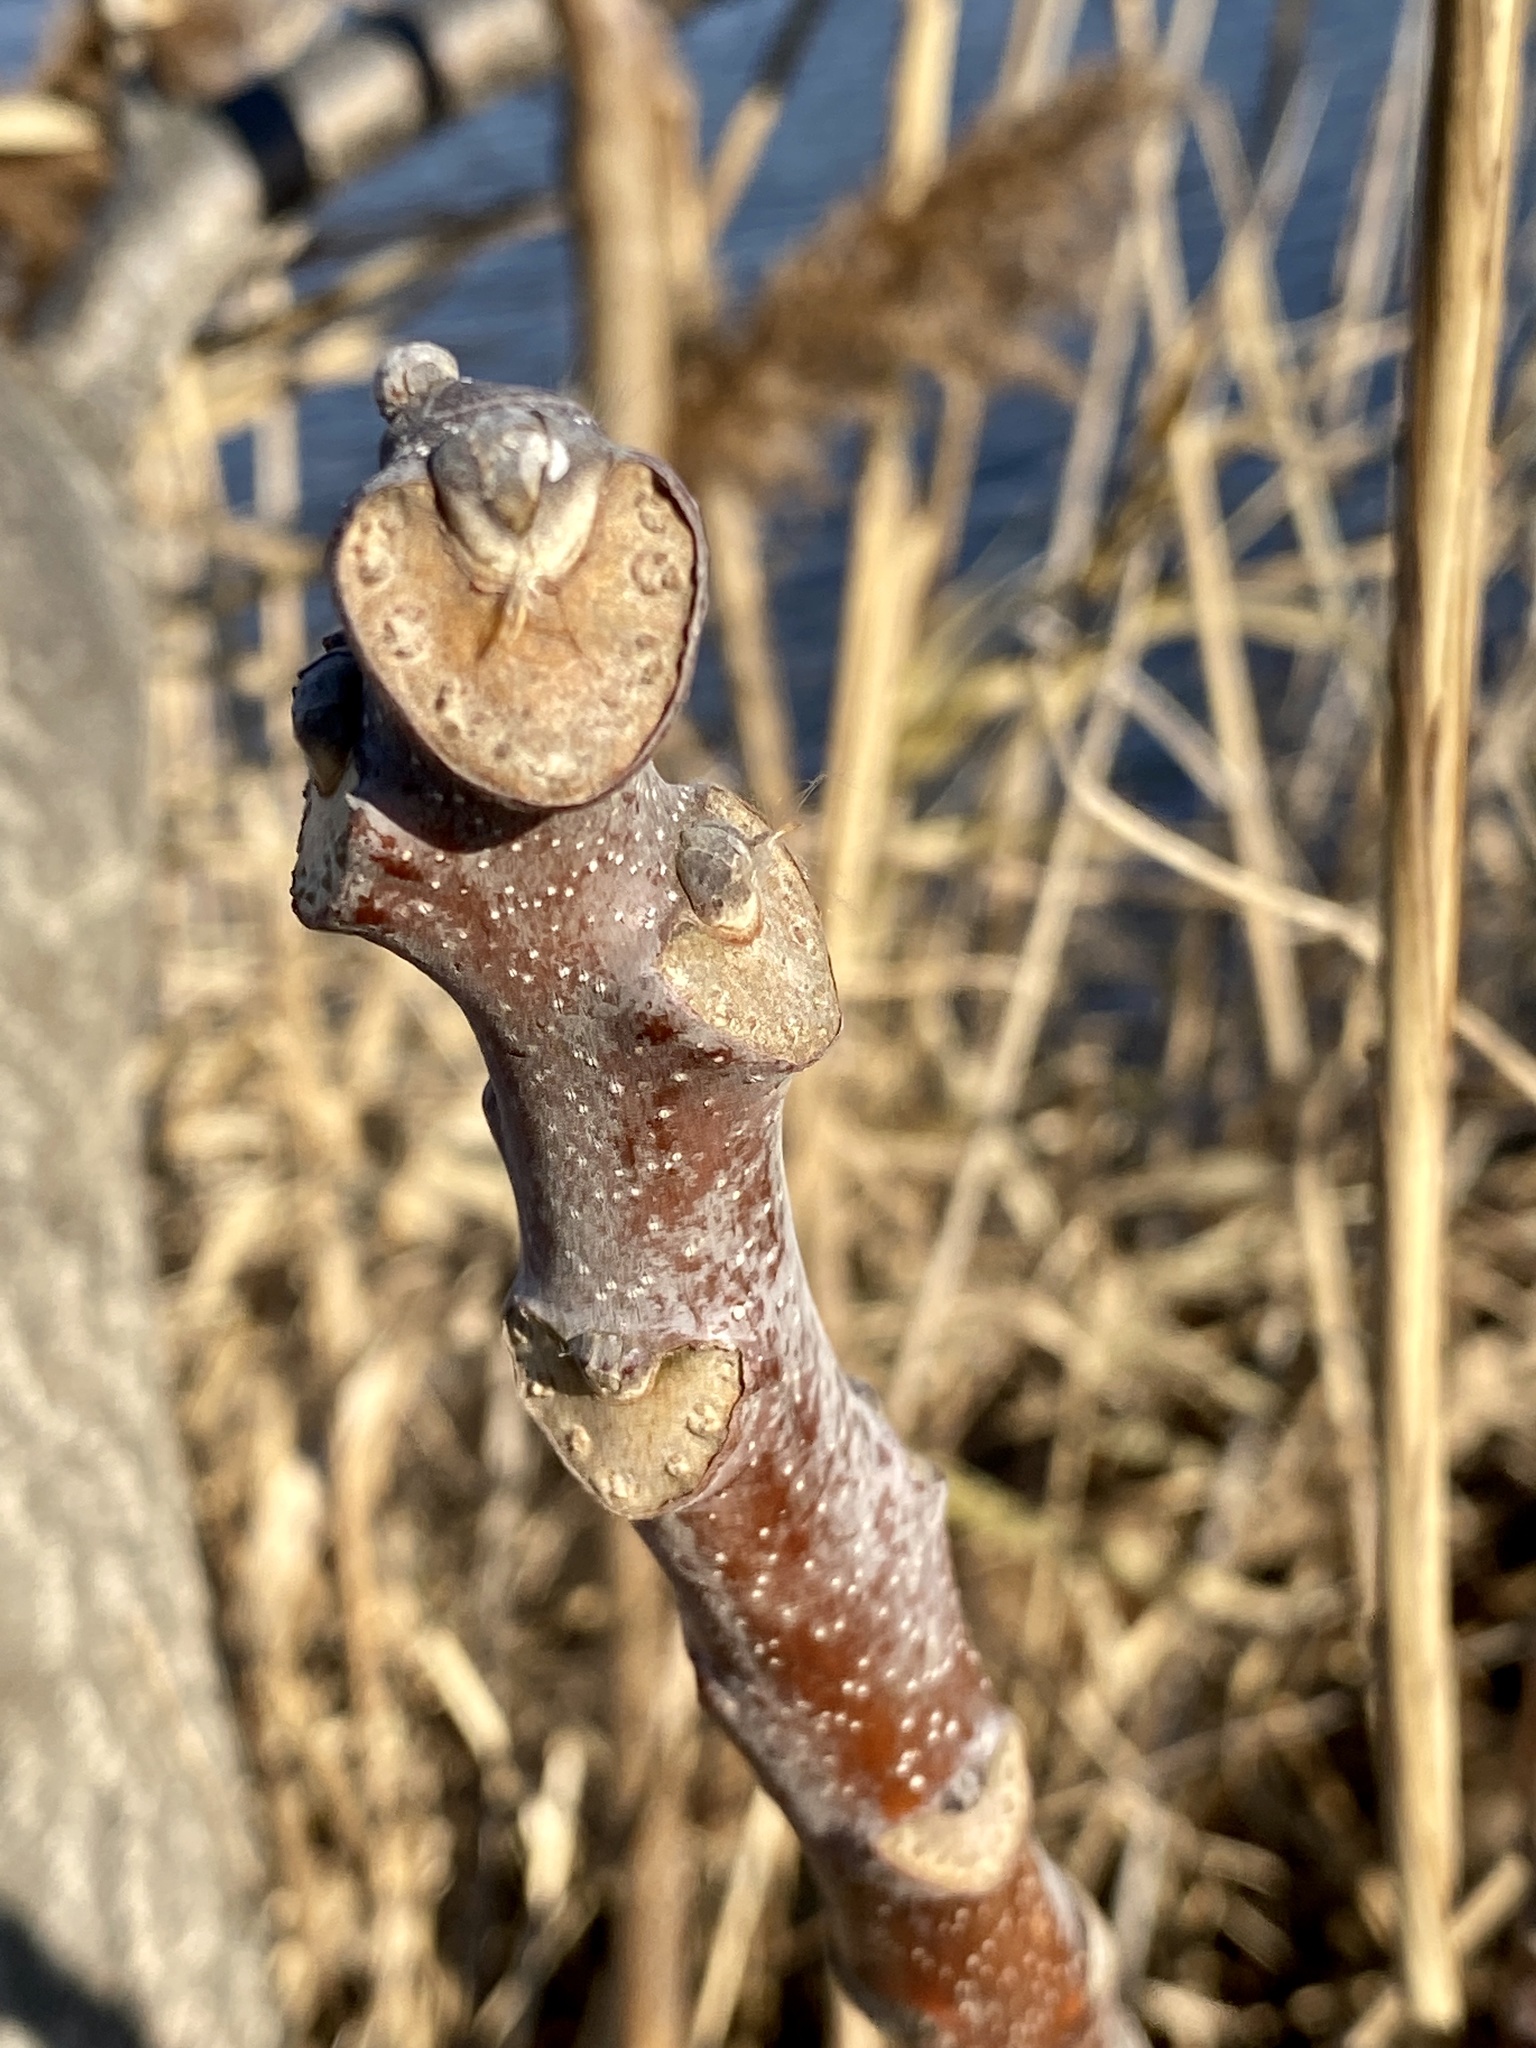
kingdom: Plantae
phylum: Tracheophyta
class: Magnoliopsida
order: Sapindales
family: Simaroubaceae
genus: Ailanthus
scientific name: Ailanthus altissima
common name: Tree-of-heaven
